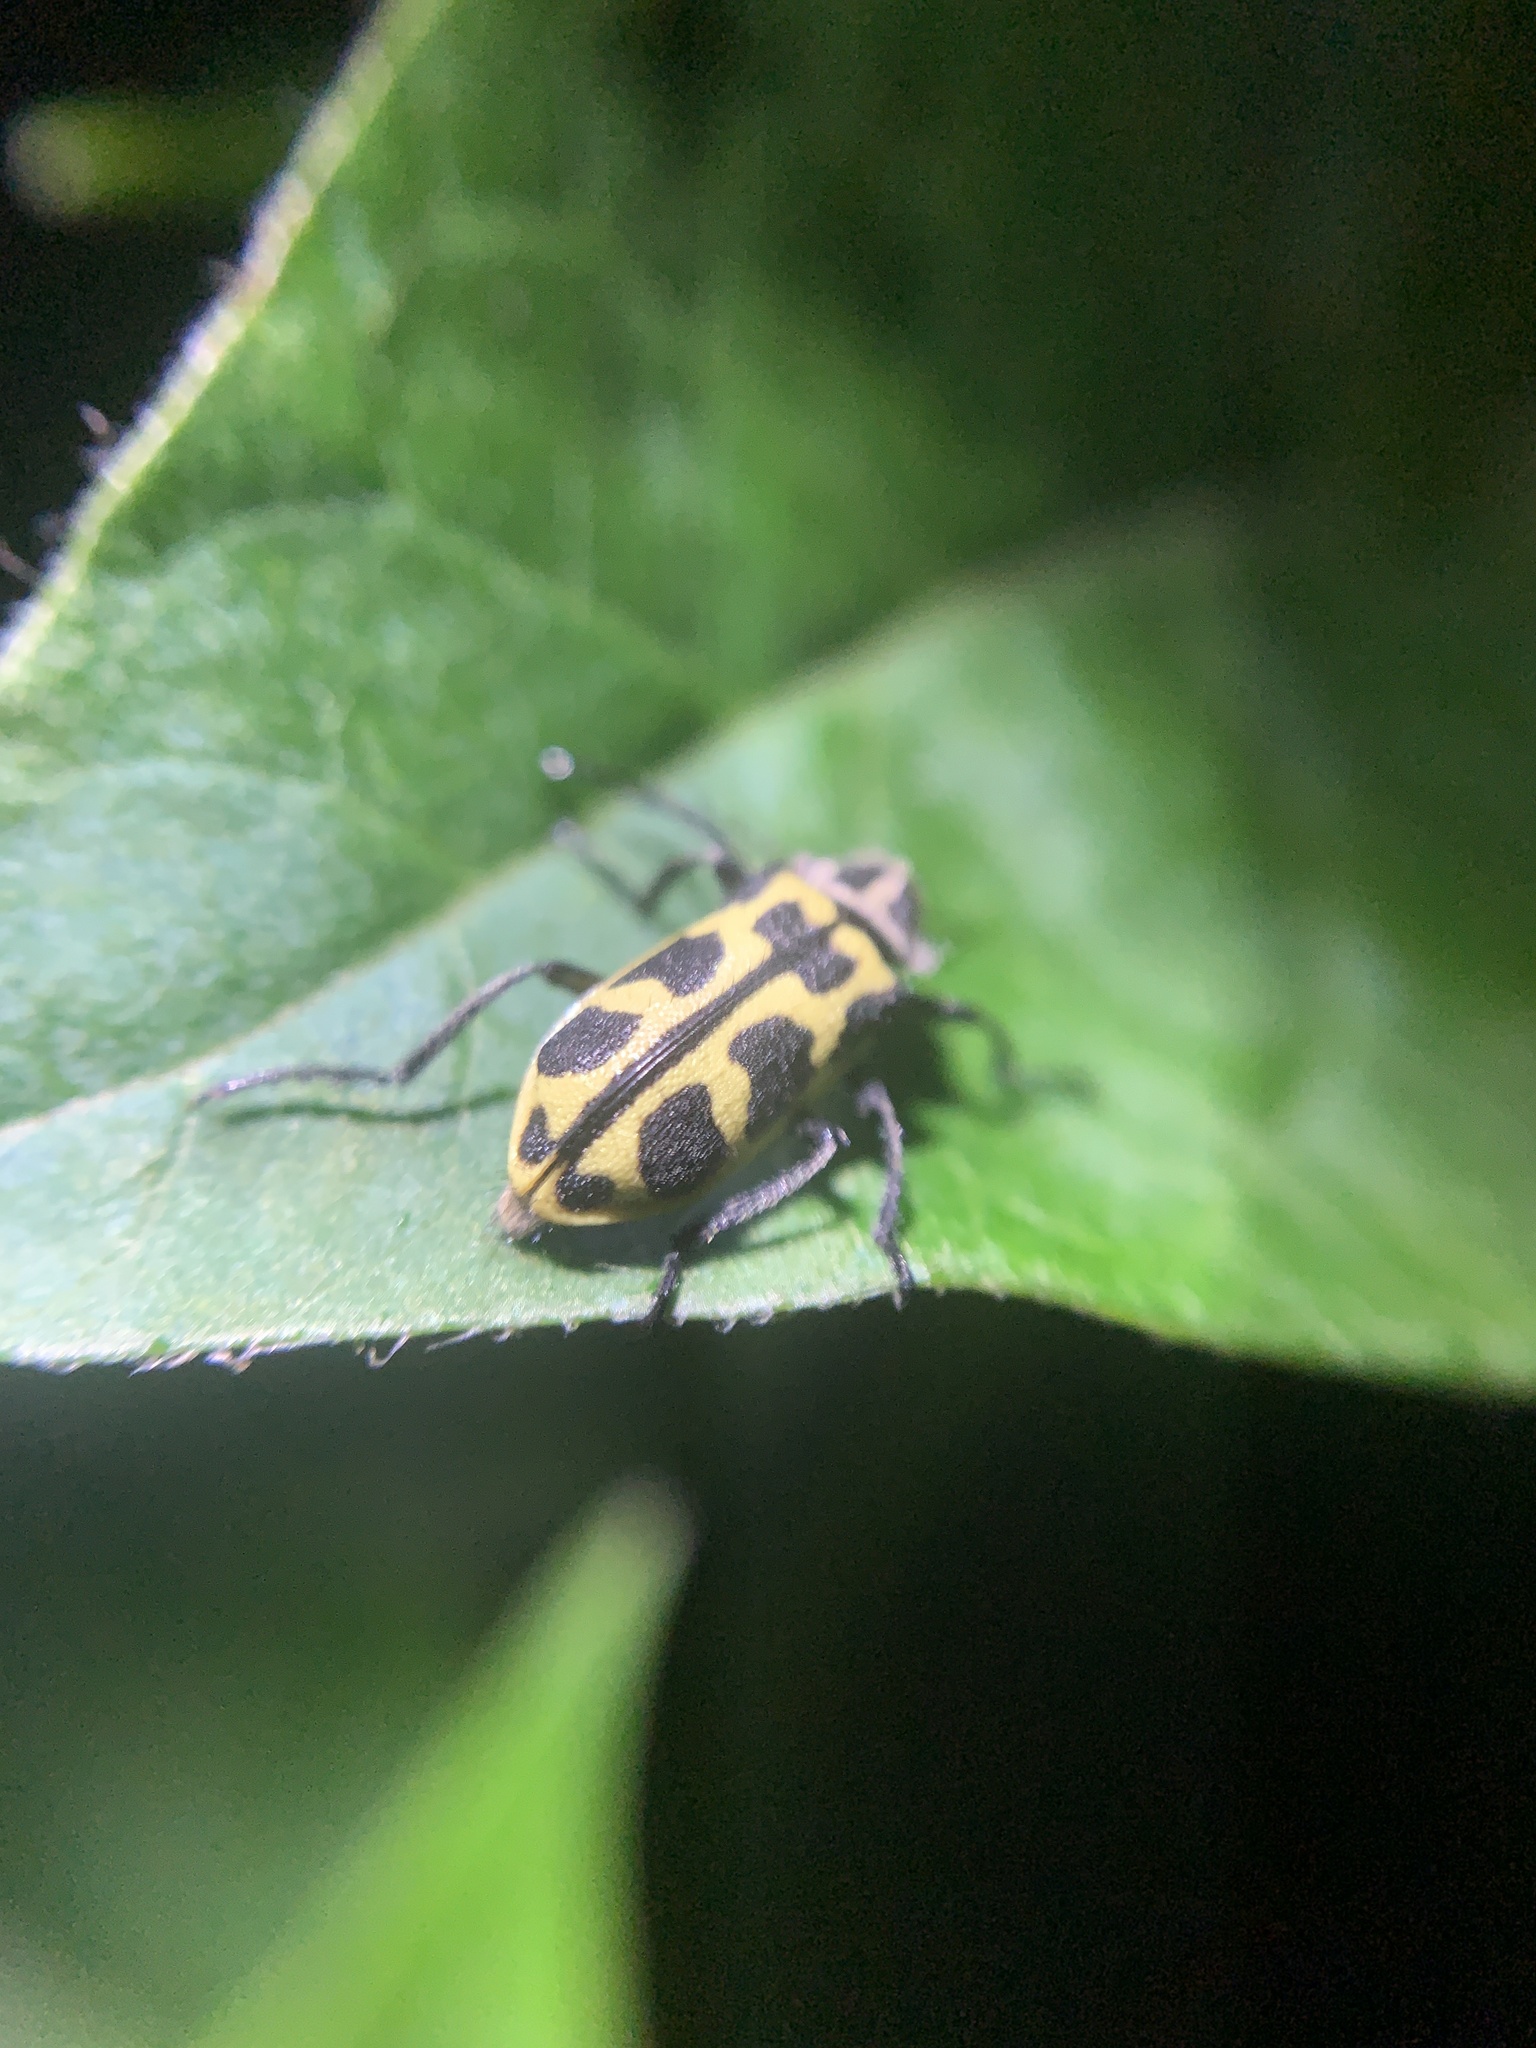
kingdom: Animalia
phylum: Arthropoda
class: Insecta
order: Coleoptera
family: Melyridae
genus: Astylus
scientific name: Astylus atromaculatus
